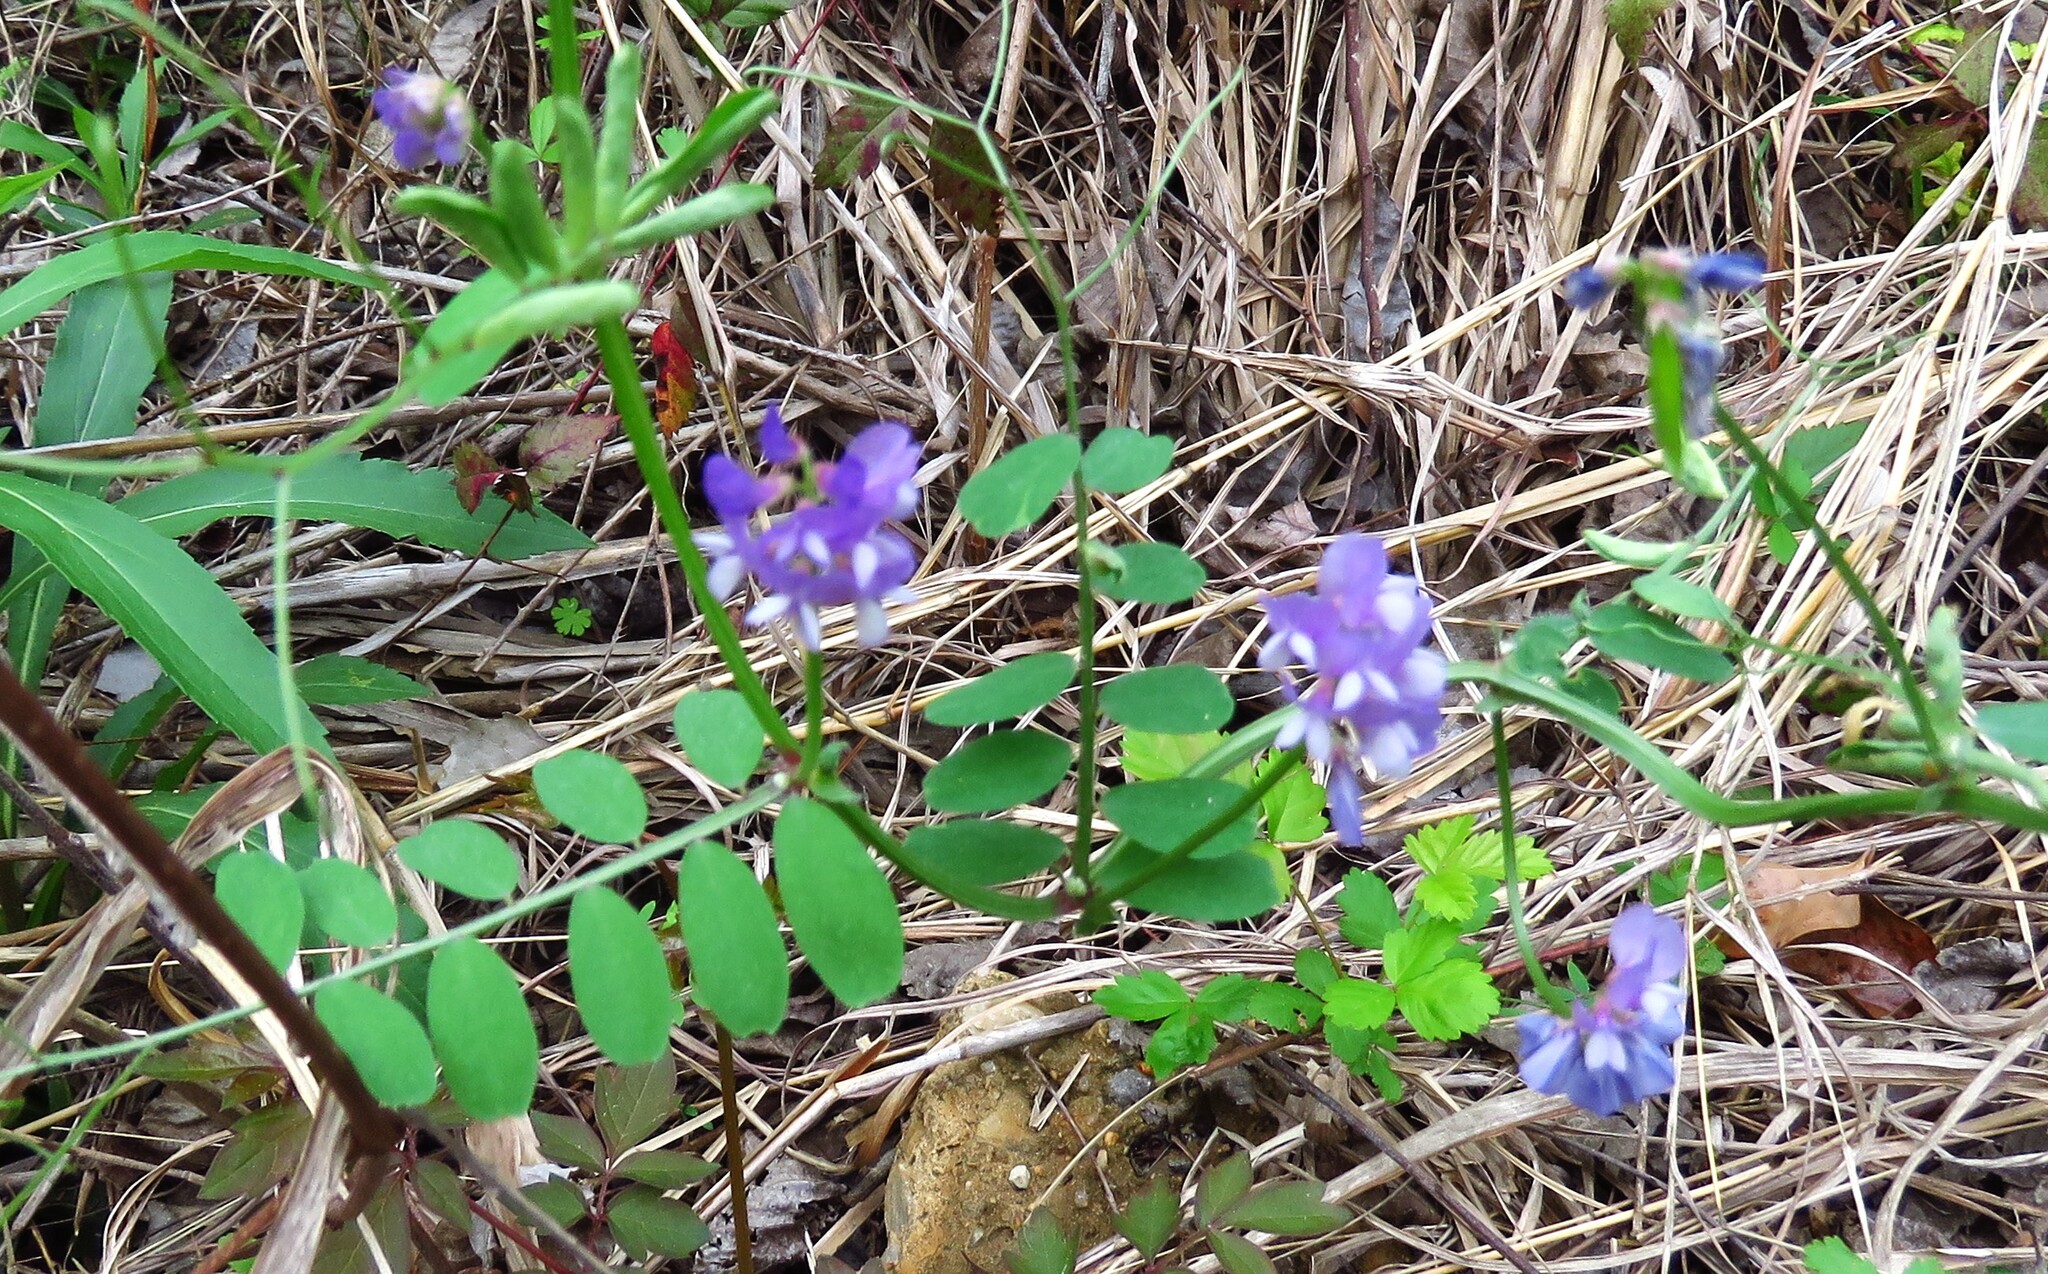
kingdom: Plantae
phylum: Tracheophyta
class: Magnoliopsida
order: Fabales
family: Fabaceae
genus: Vicia
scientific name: Vicia ludoviciana
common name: Louisiana vetch
